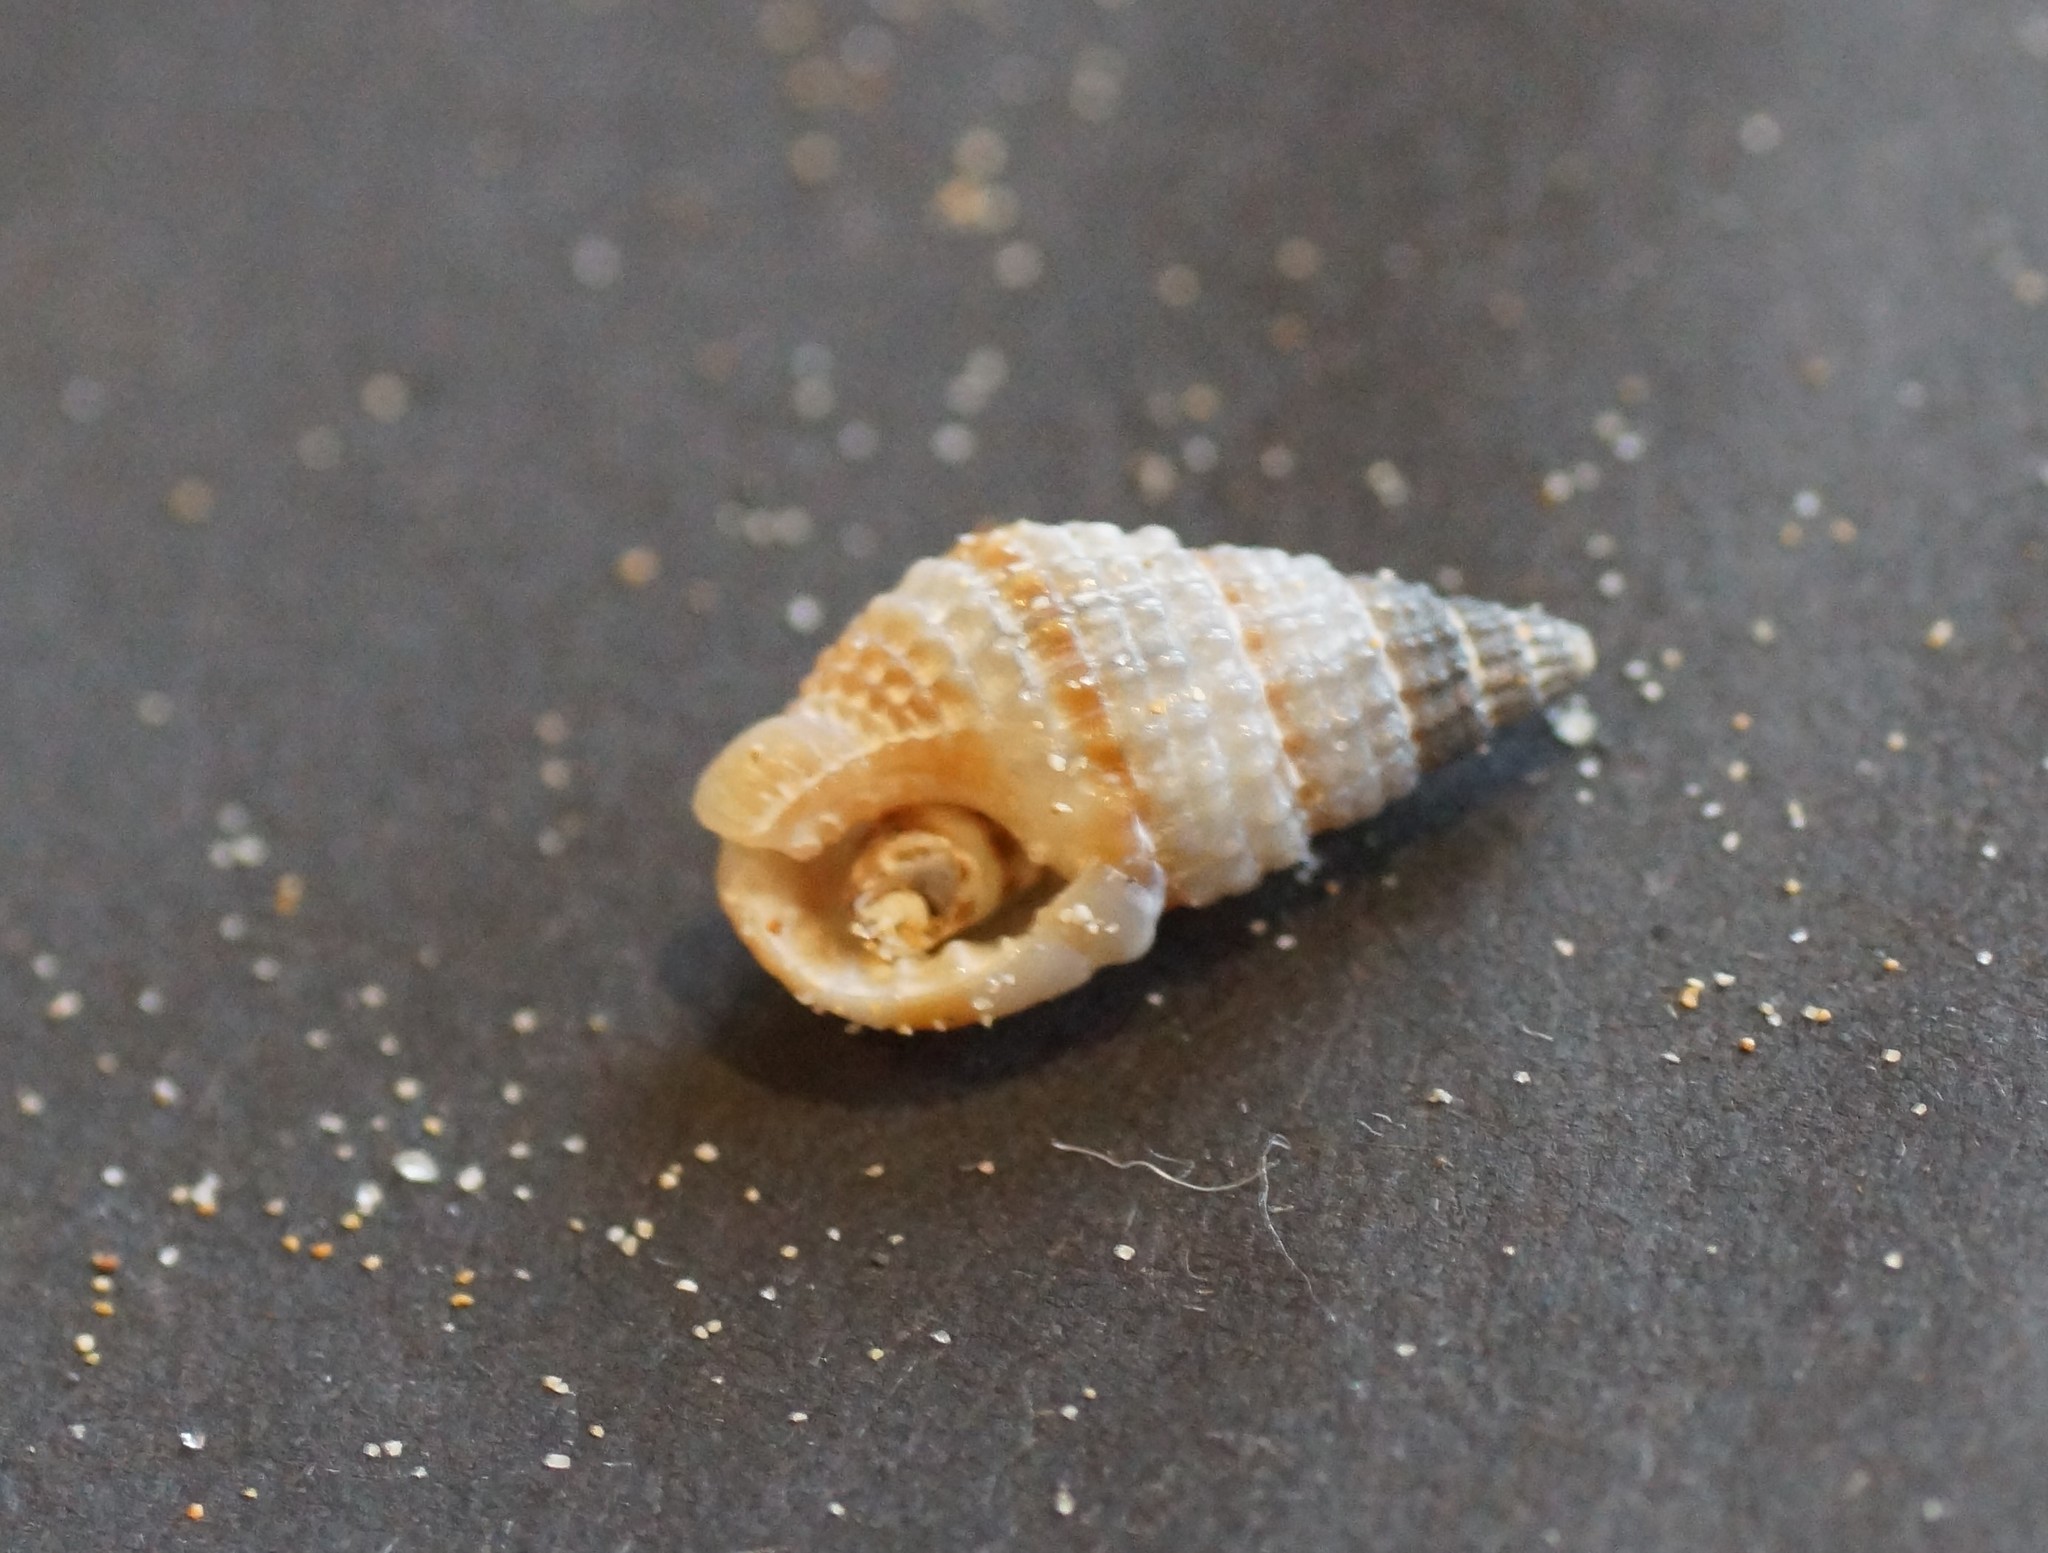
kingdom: Animalia
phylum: Mollusca
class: Gastropoda
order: Neogastropoda
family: Nassariidae
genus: Nassarius
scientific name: Nassarius pyrrhus
